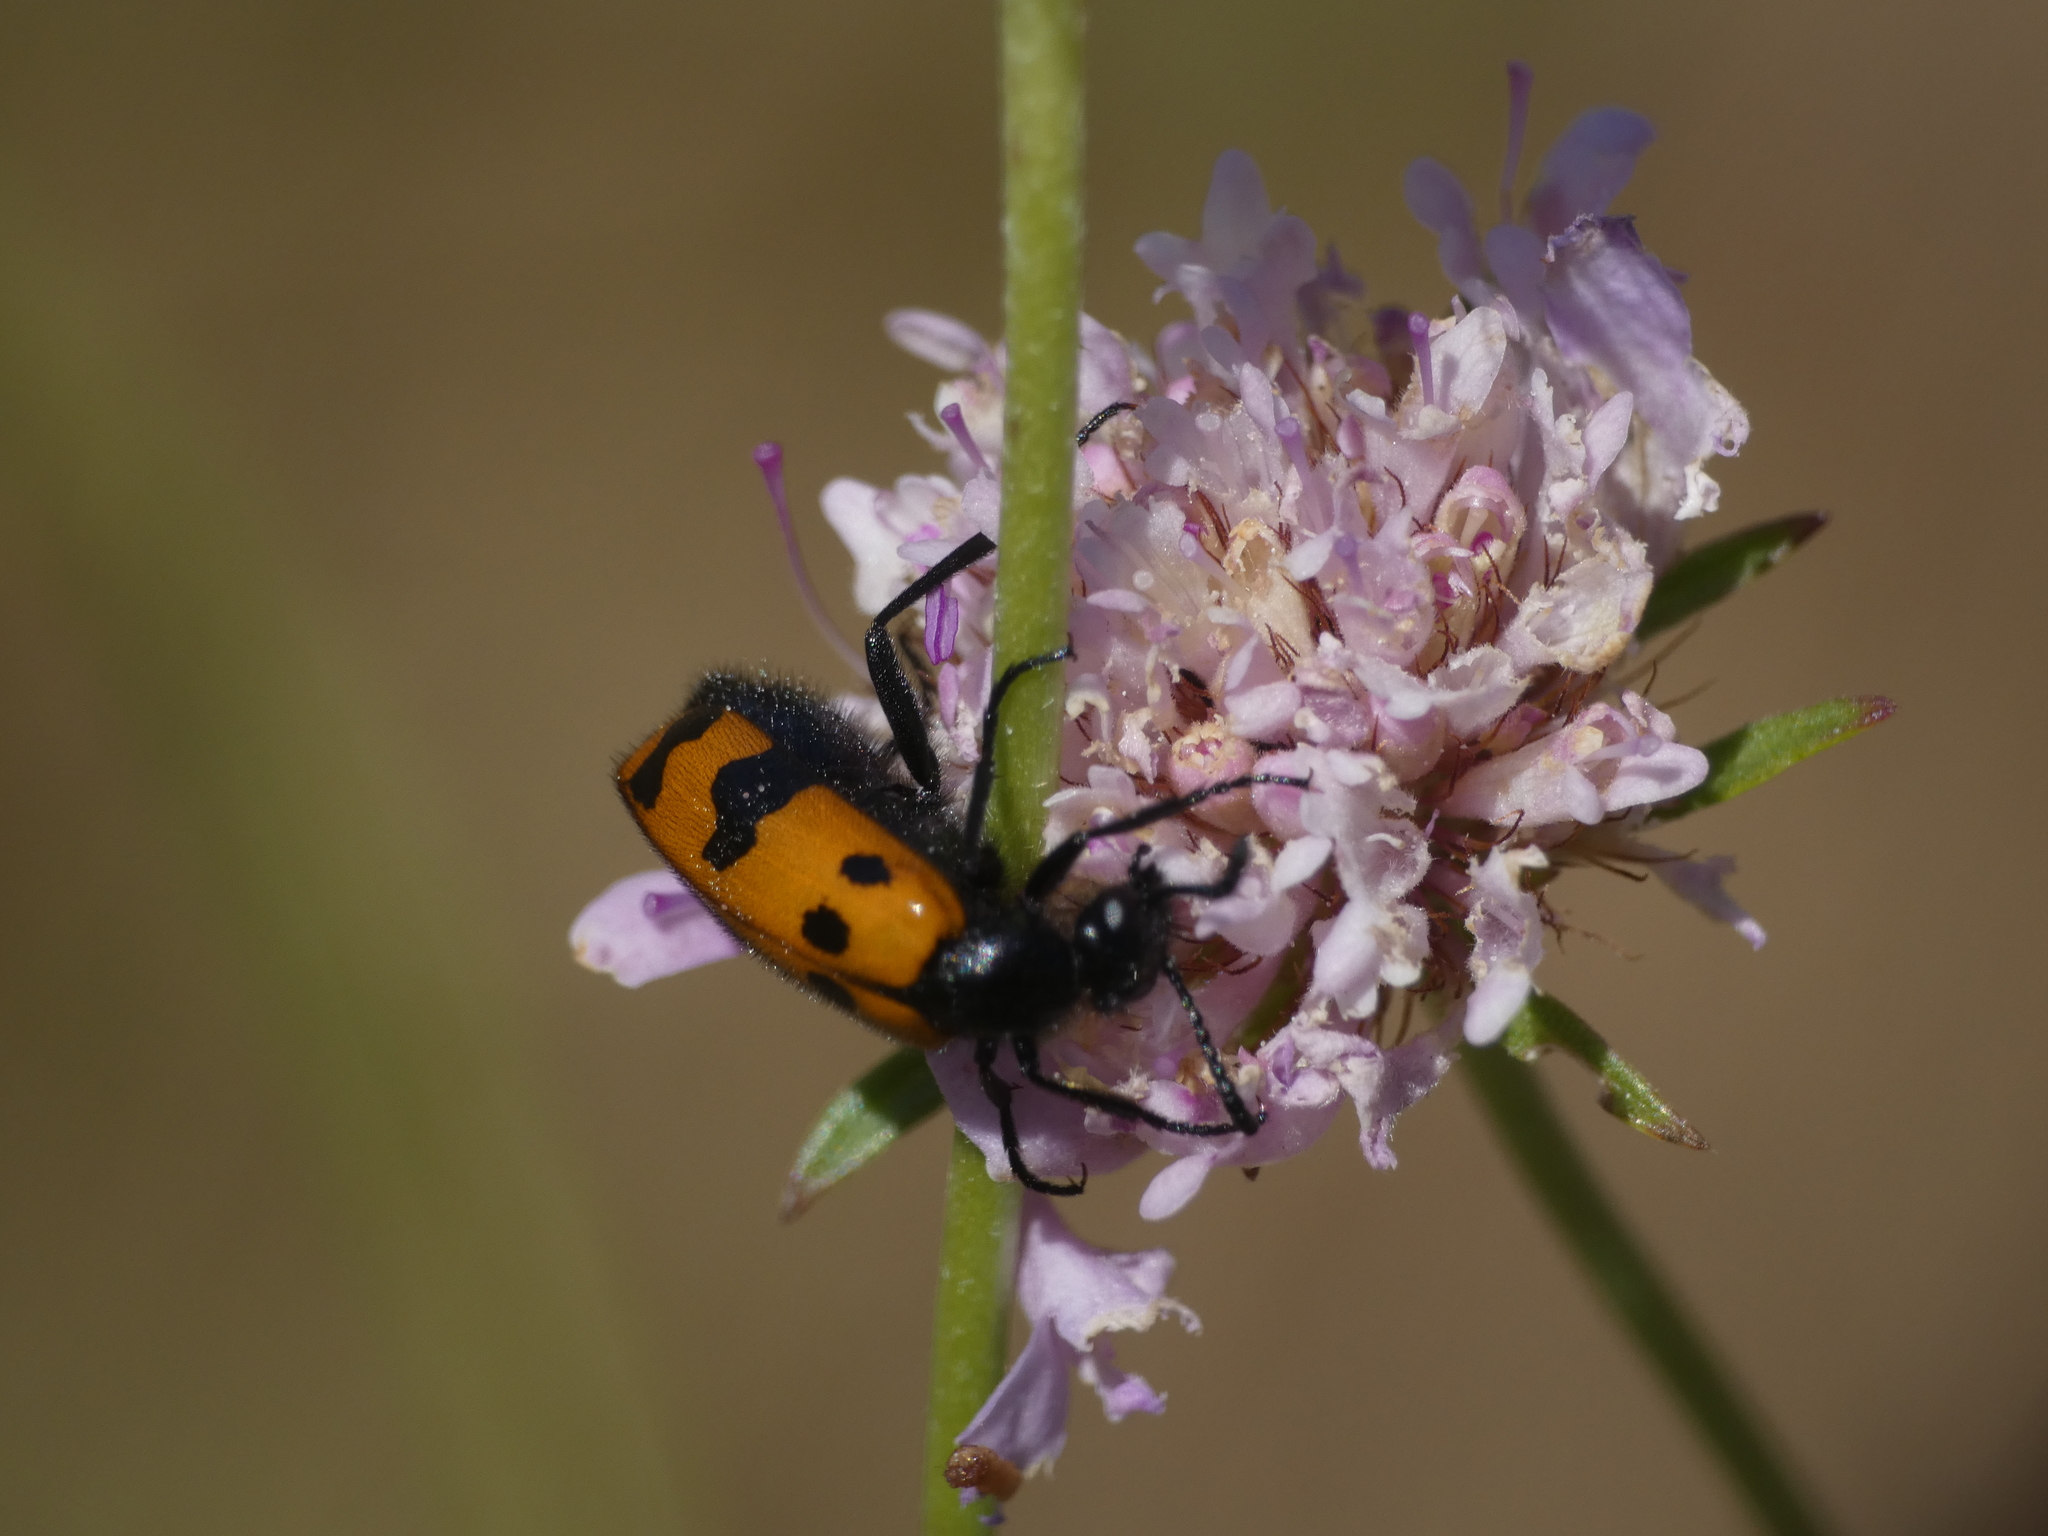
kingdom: Animalia
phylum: Arthropoda
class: Insecta
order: Coleoptera
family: Meloidae
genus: Mylabris
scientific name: Mylabris connata
